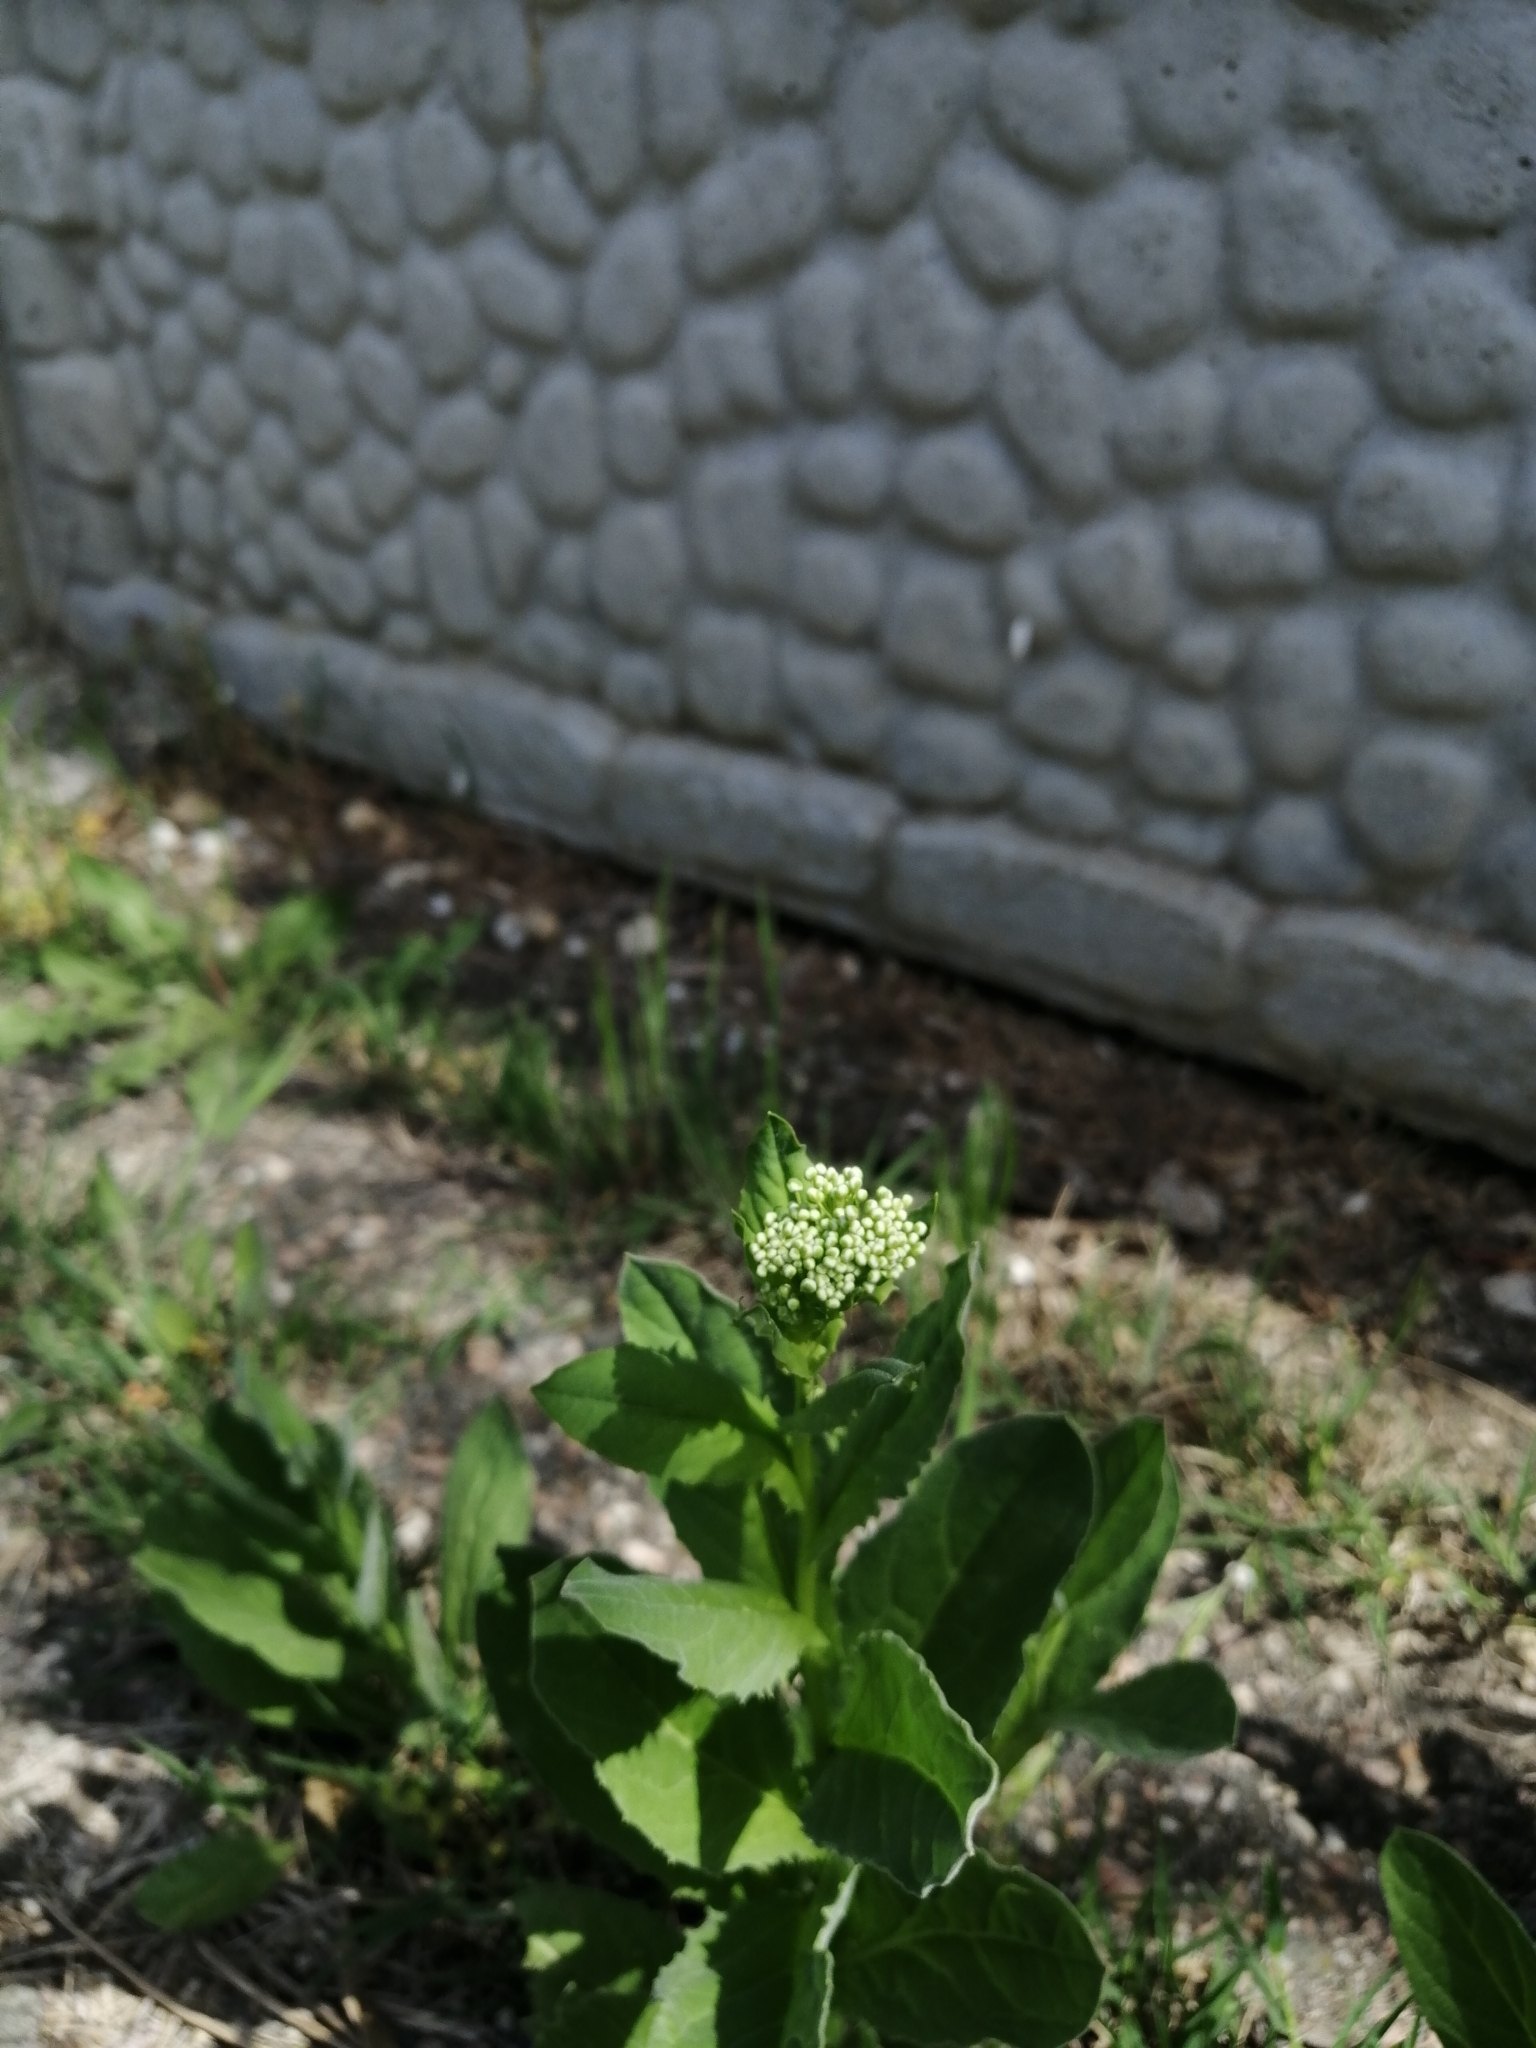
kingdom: Plantae
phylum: Tracheophyta
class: Magnoliopsida
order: Brassicales
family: Brassicaceae
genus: Lepidium
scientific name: Lepidium draba
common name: Hoary cress
